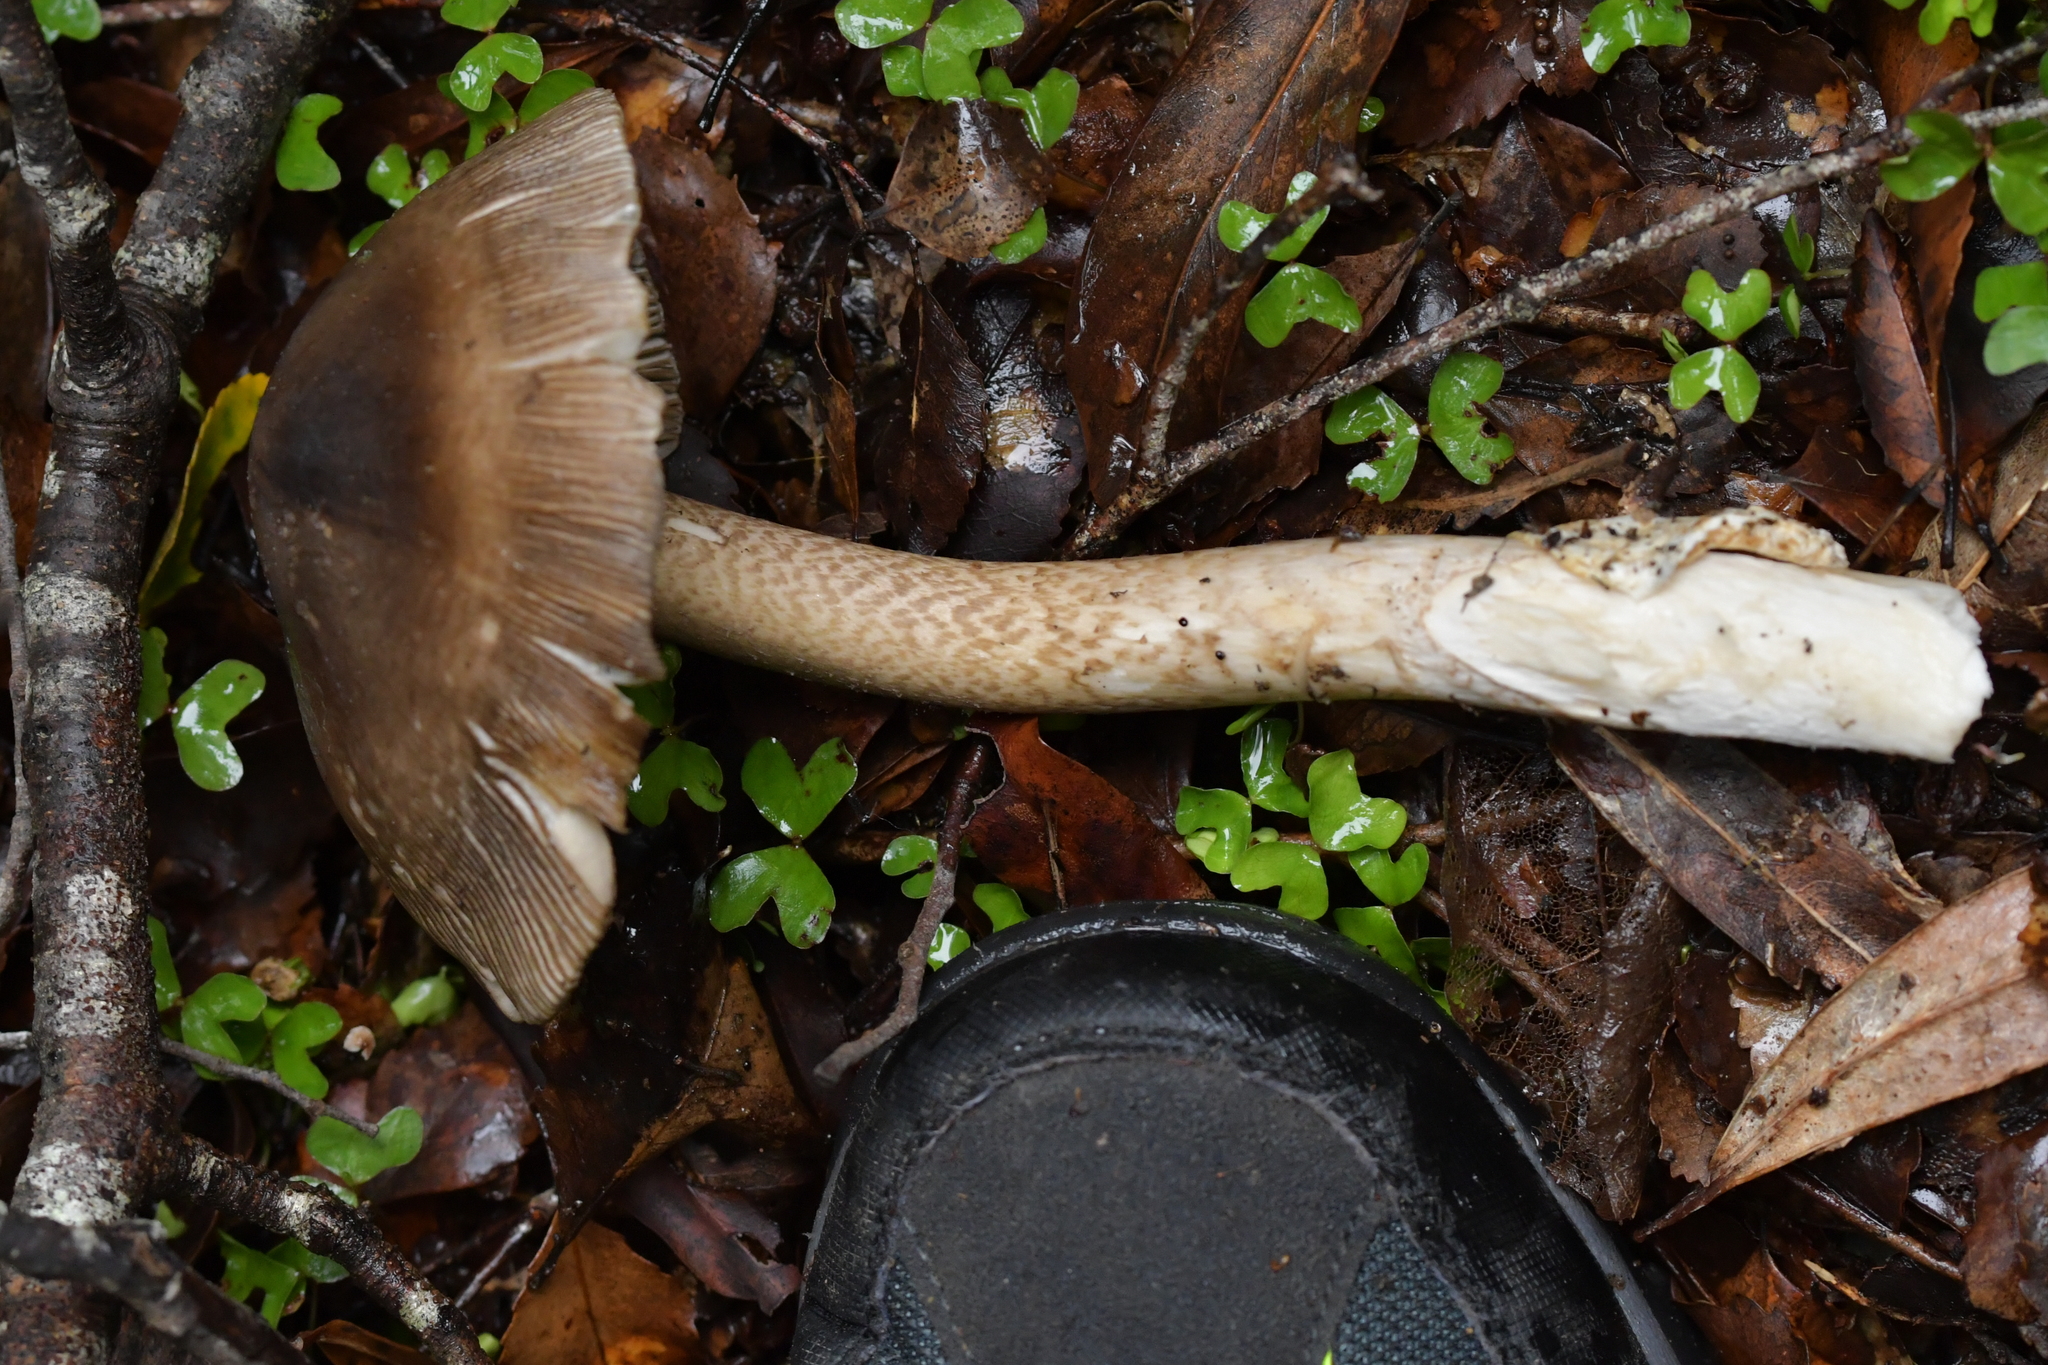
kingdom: Fungi
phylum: Basidiomycota
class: Agaricomycetes
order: Agaricales
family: Amanitaceae
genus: Amanita
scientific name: Amanita pekeoides
